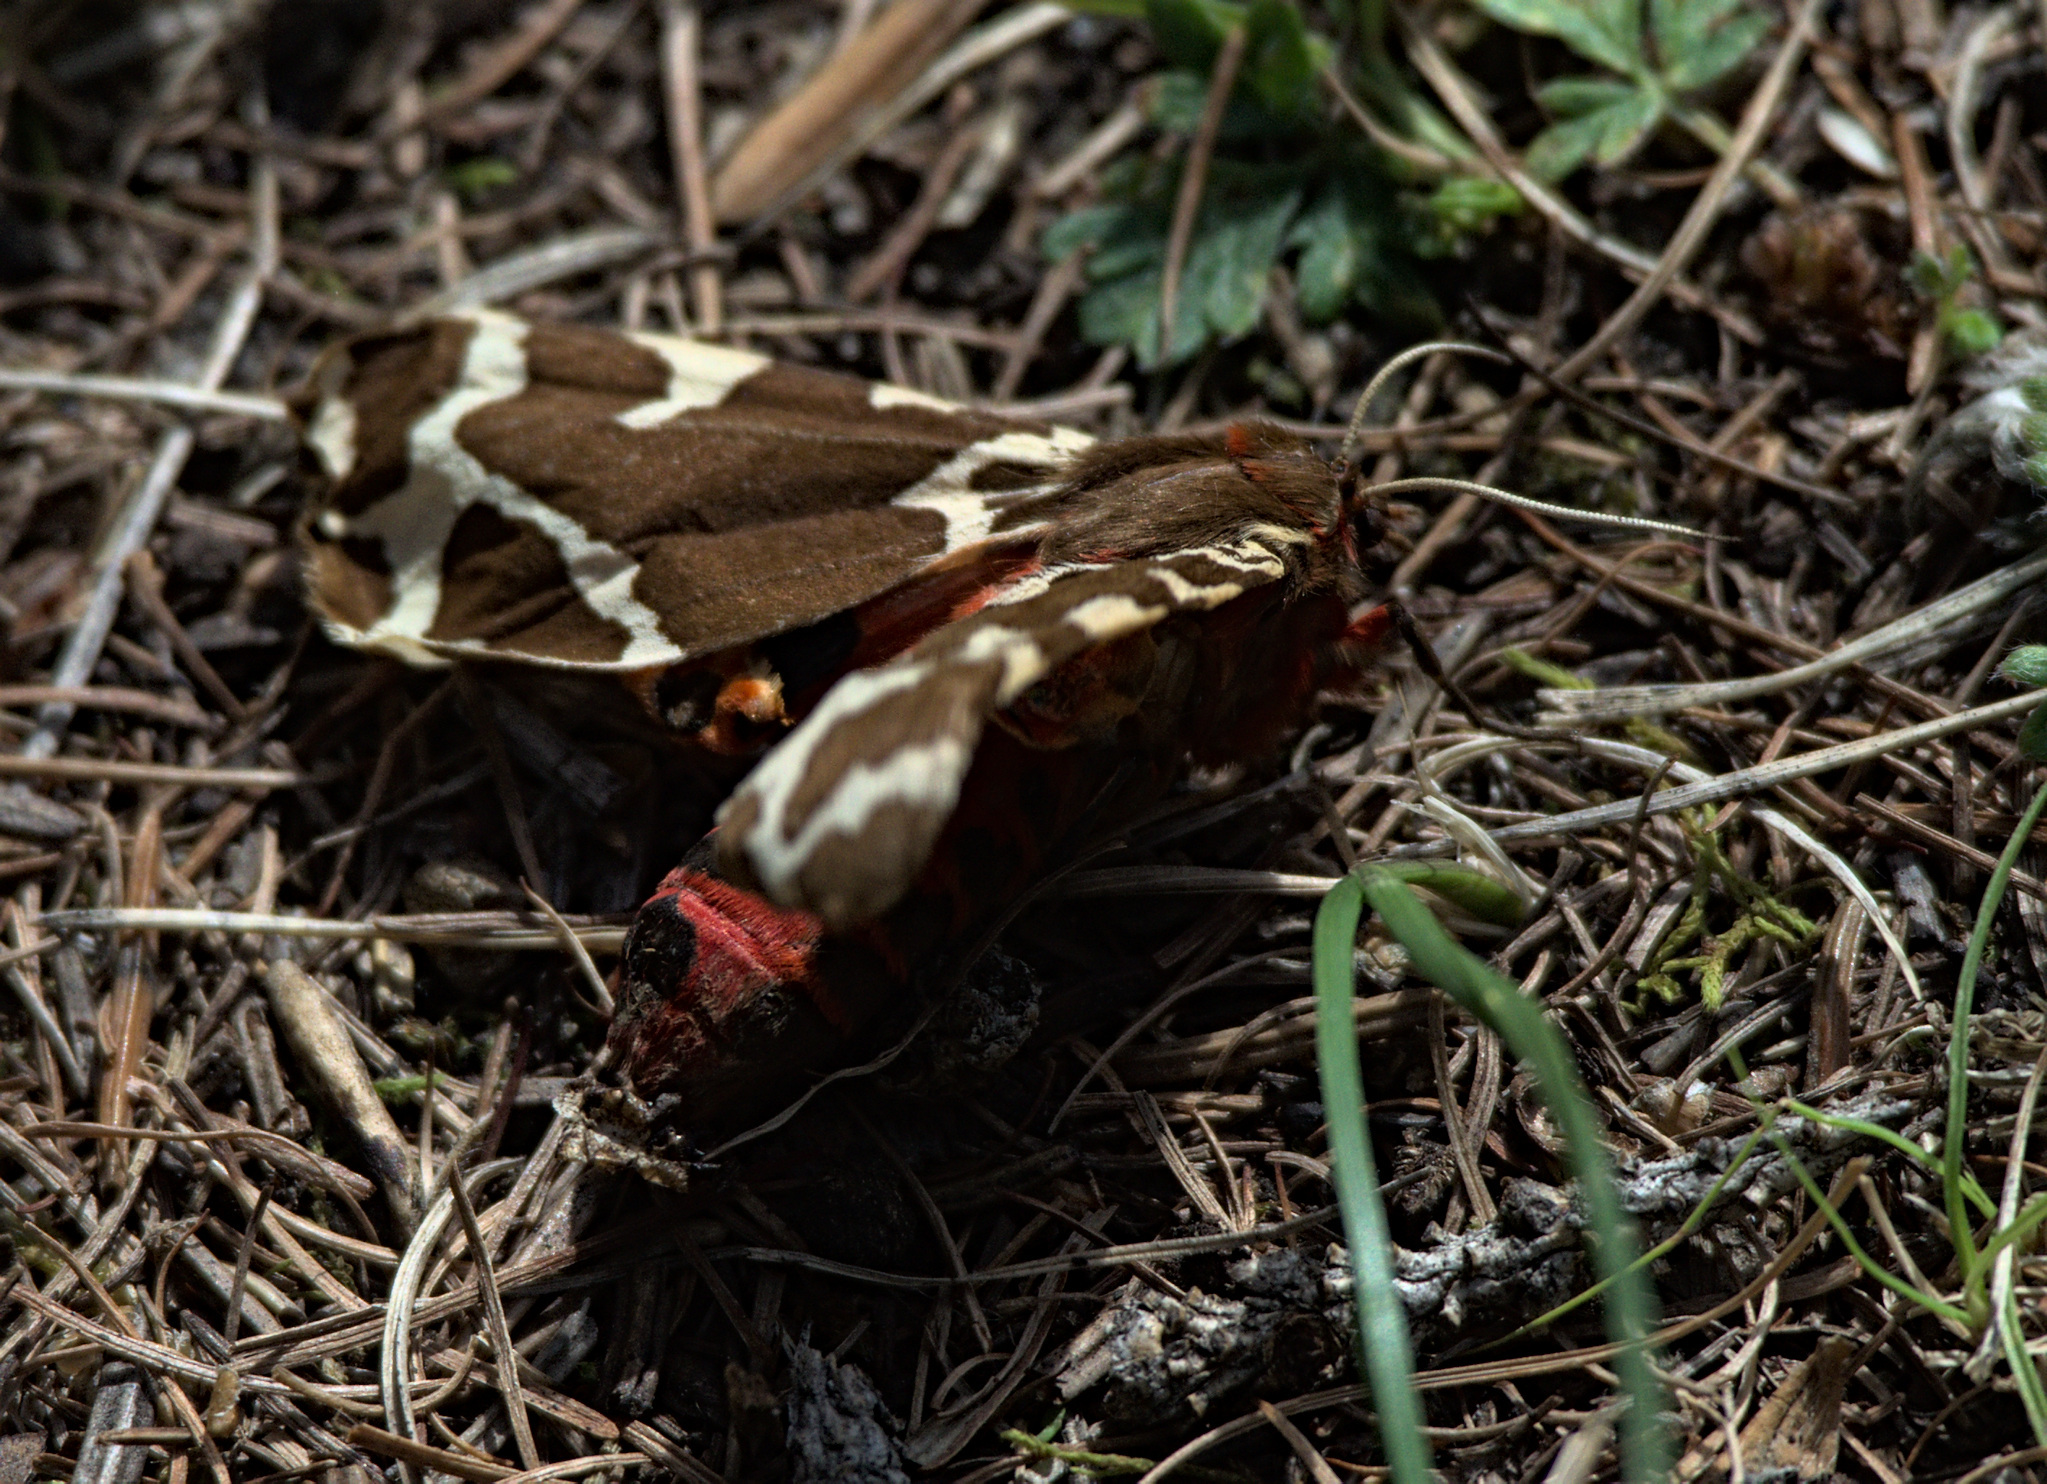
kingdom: Animalia
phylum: Arthropoda
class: Insecta
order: Lepidoptera
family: Erebidae
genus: Arctia
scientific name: Arctia caja
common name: Garden tiger
